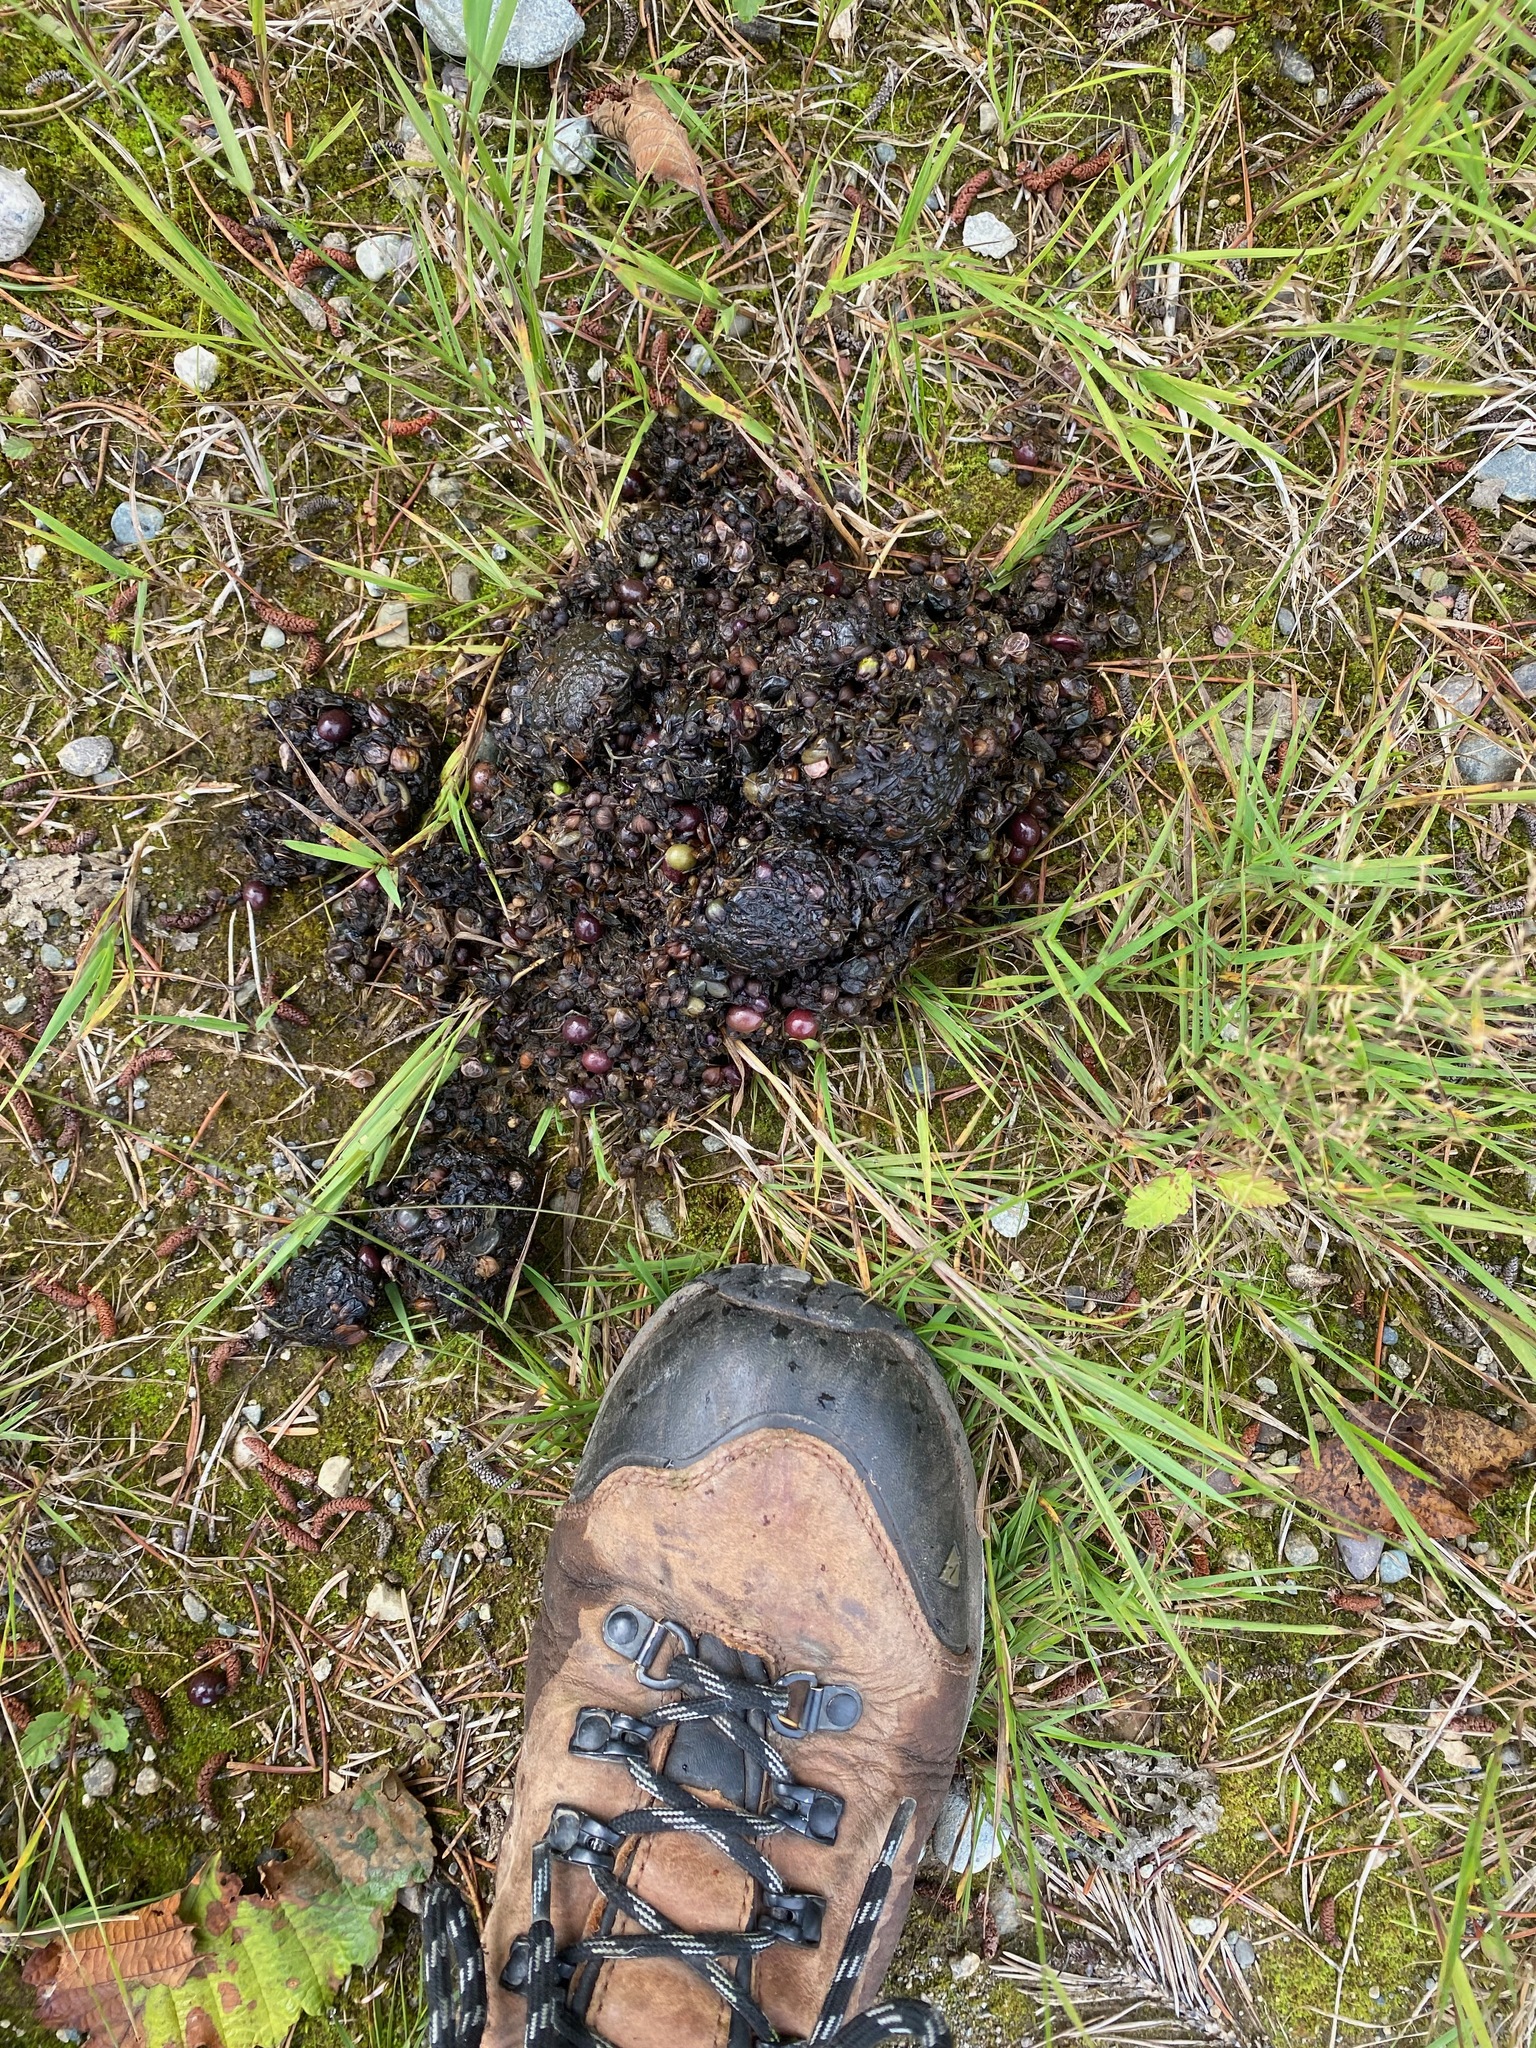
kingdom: Animalia
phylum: Chordata
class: Mammalia
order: Carnivora
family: Ursidae
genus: Ursus
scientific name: Ursus americanus
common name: American black bear
